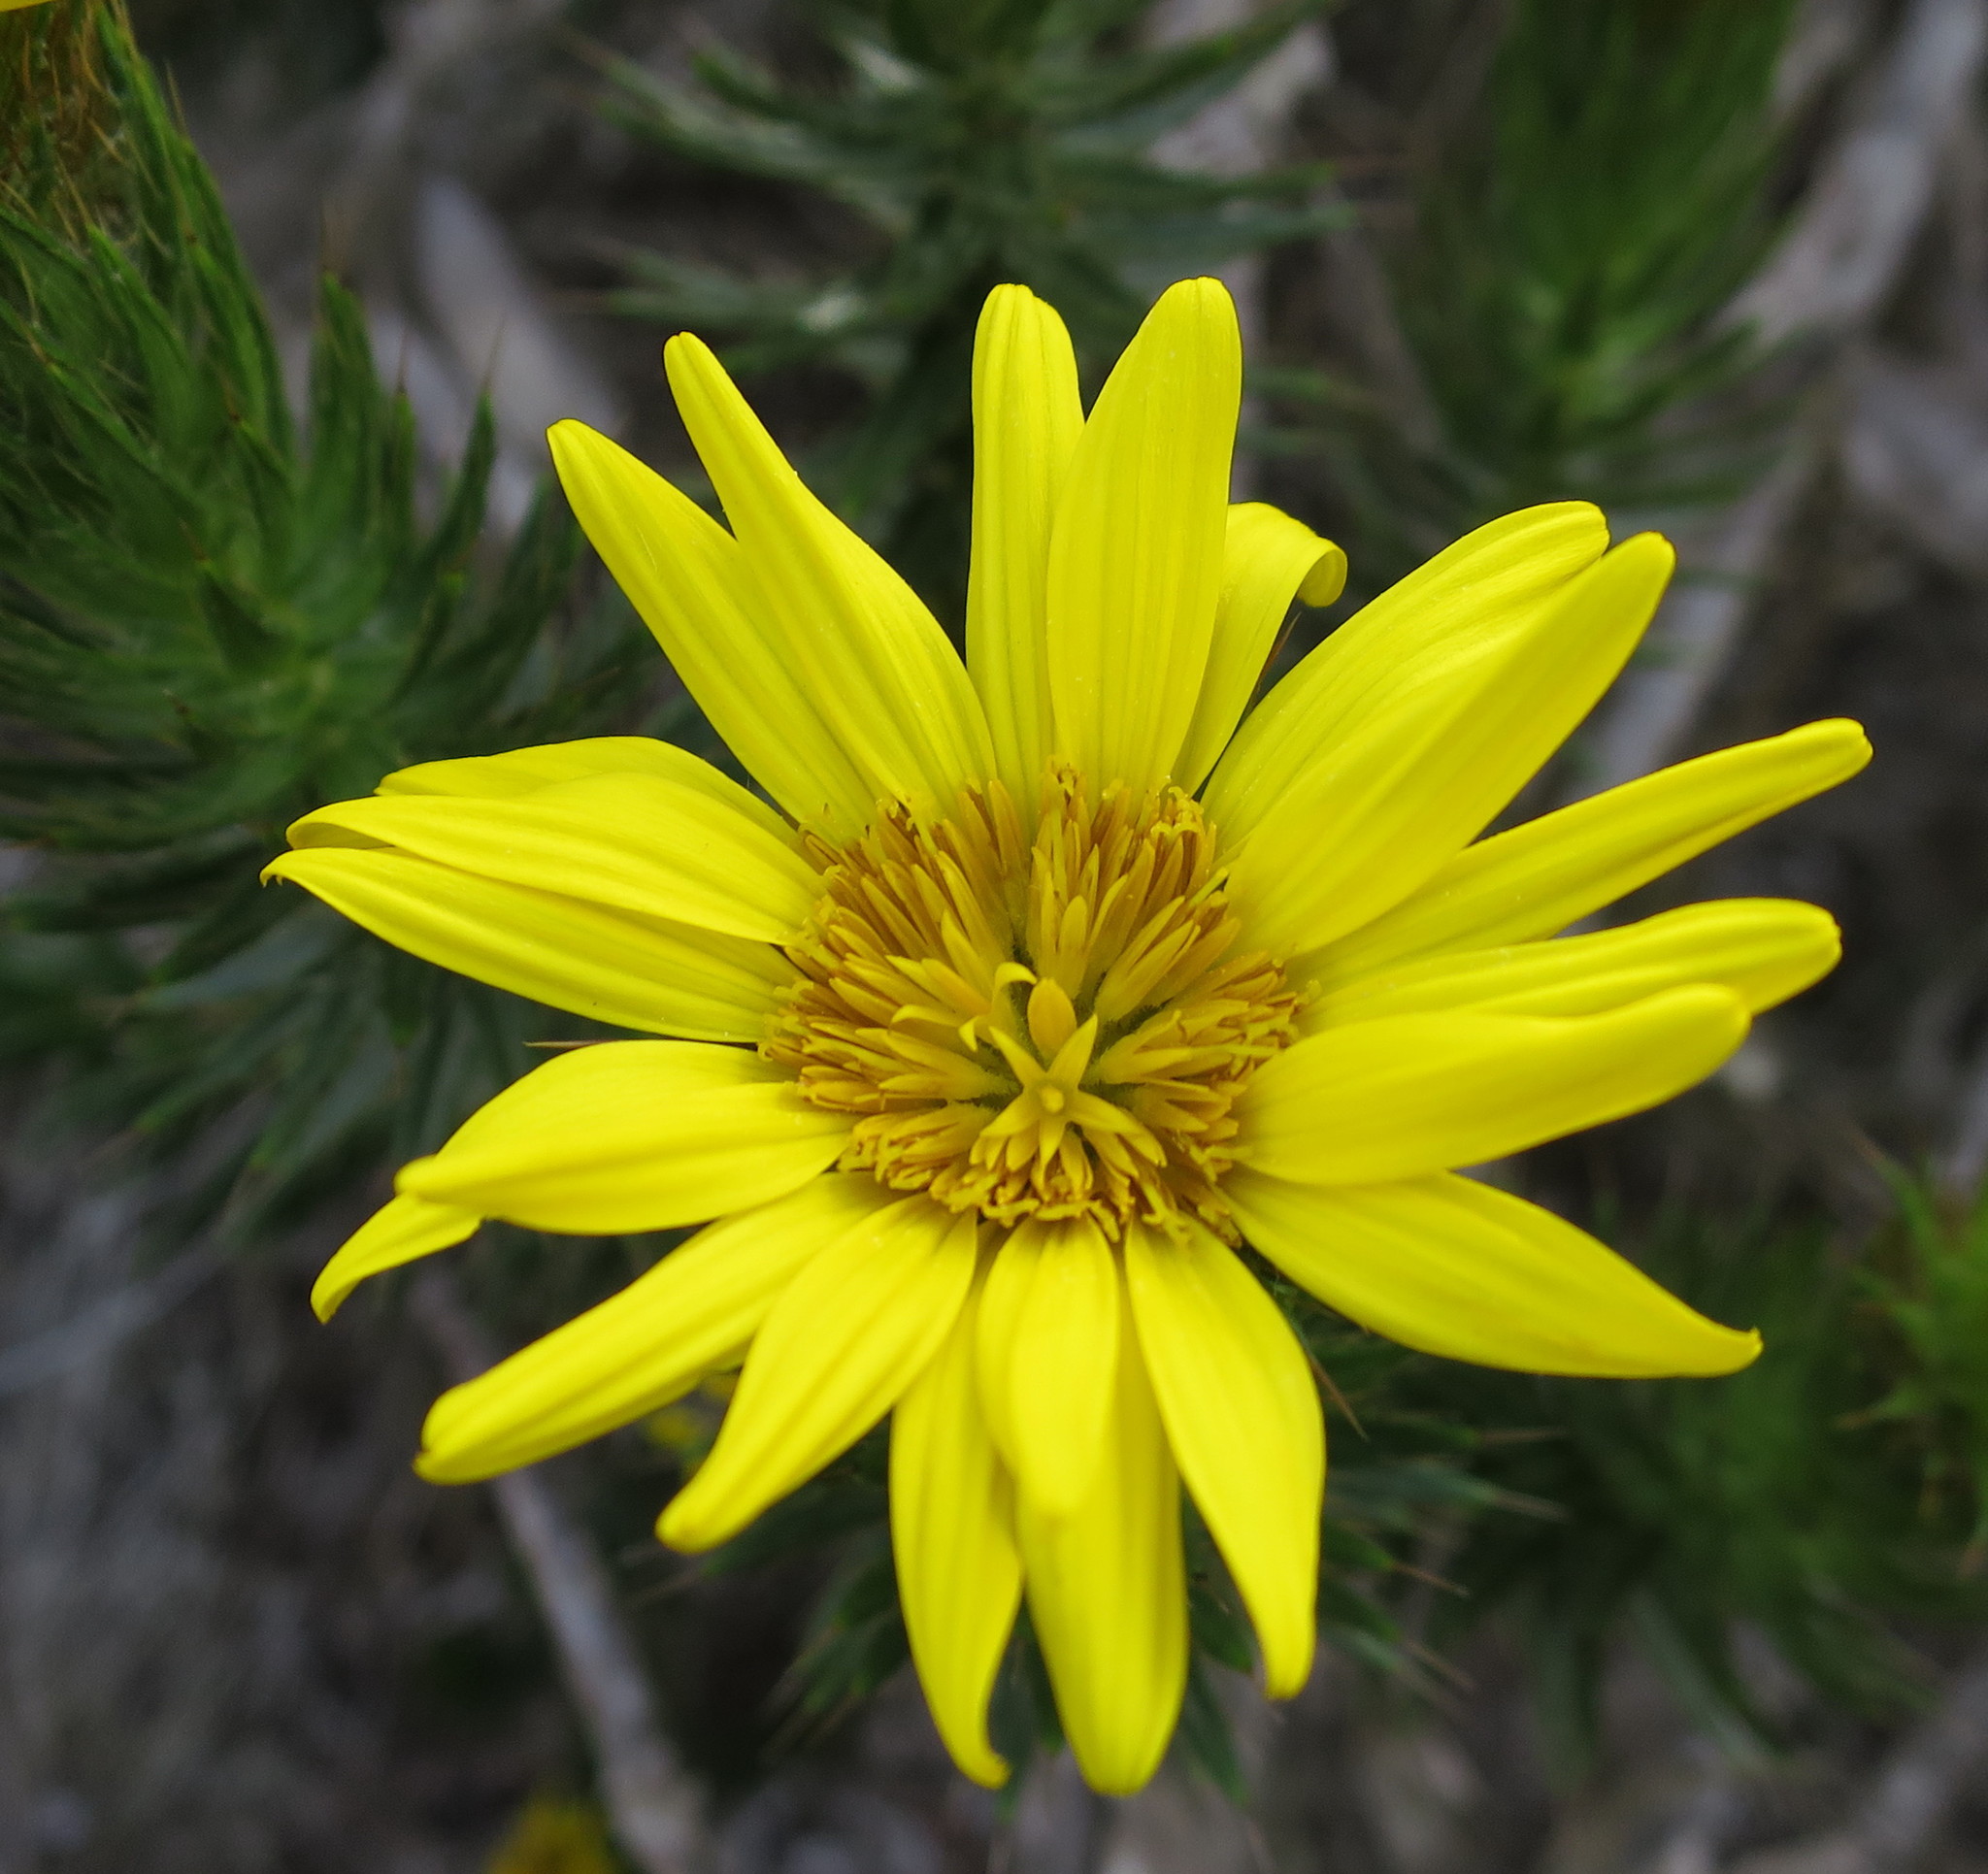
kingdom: Plantae
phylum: Tracheophyta
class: Magnoliopsida
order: Asterales
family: Asteraceae
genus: Cullumia
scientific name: Cullumia carlinoides
